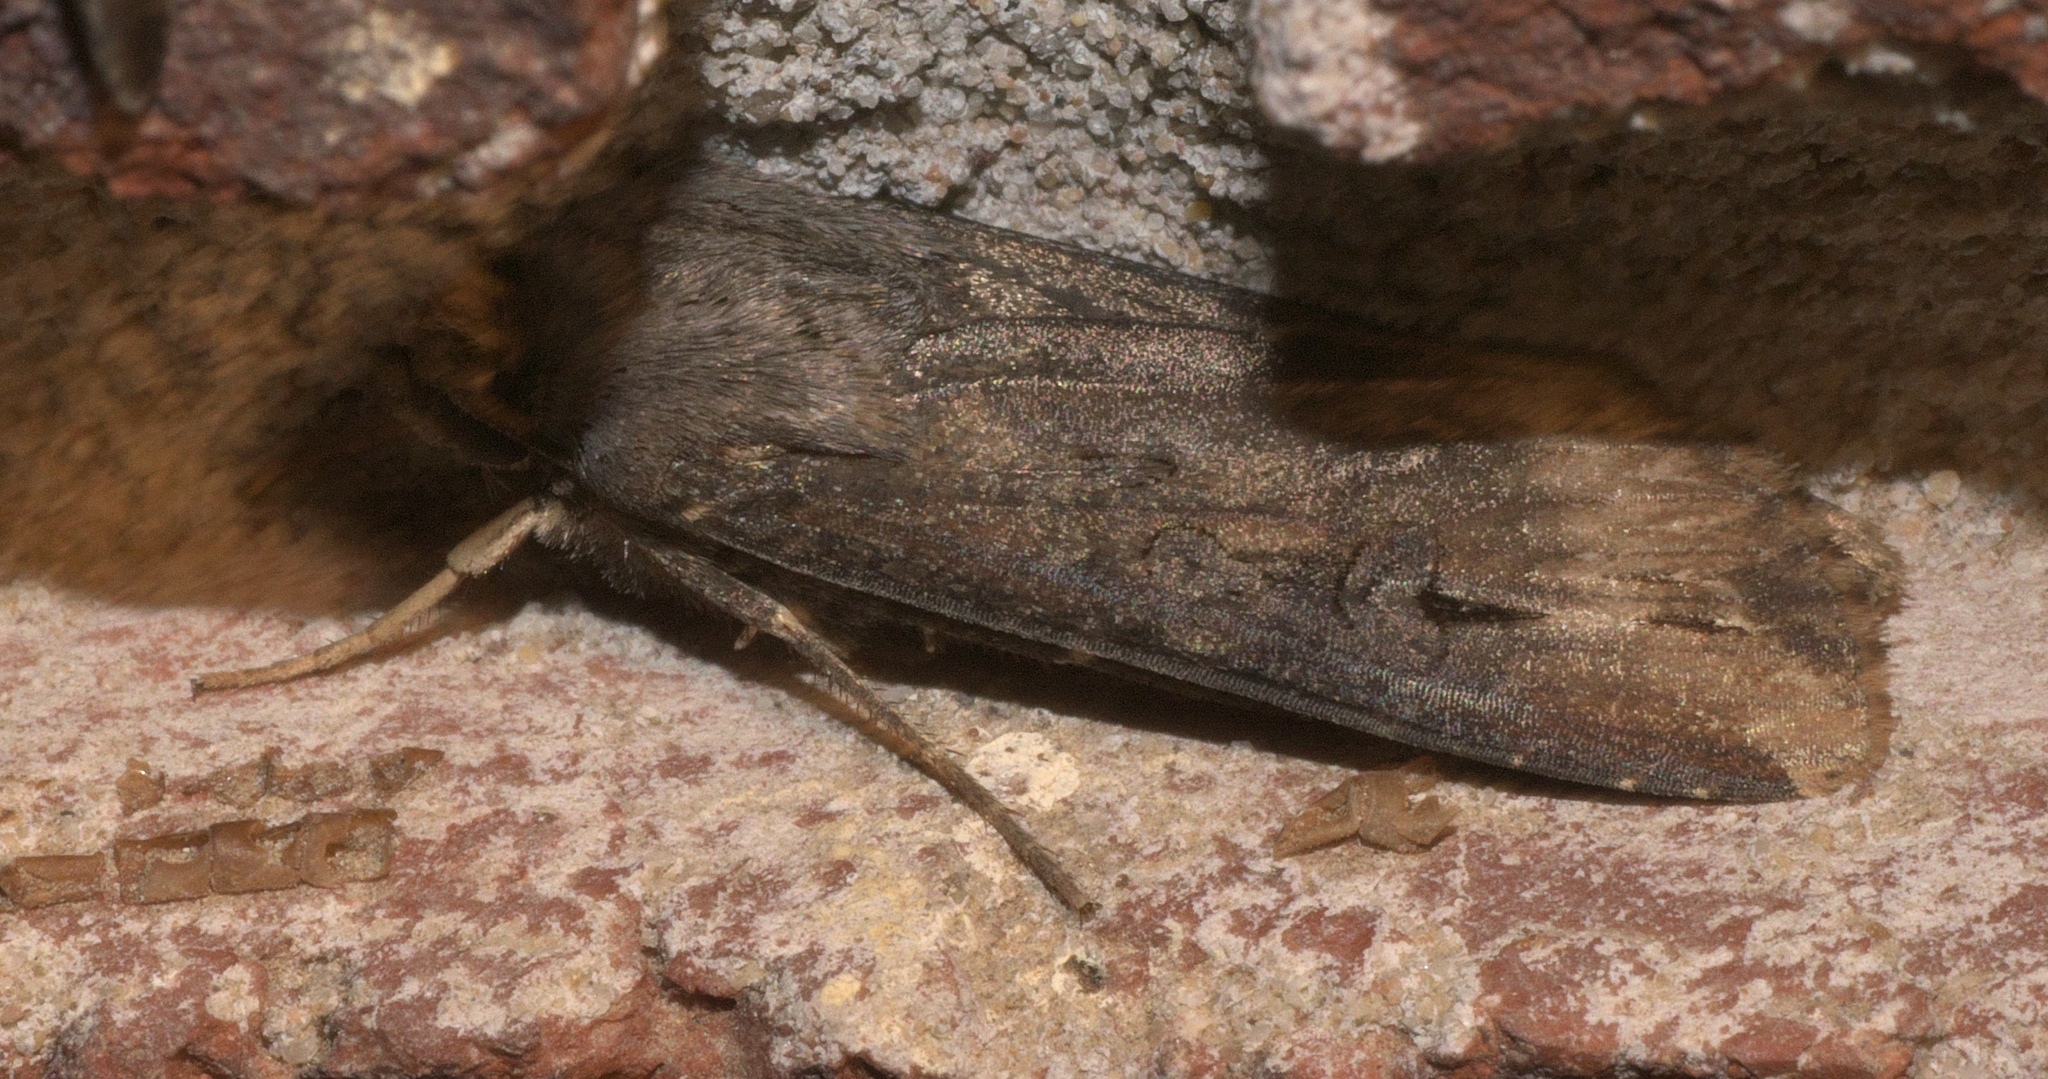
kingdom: Animalia
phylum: Arthropoda
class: Insecta
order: Lepidoptera
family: Noctuidae
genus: Agrotis
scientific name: Agrotis ipsilon
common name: Dark sword-grass
